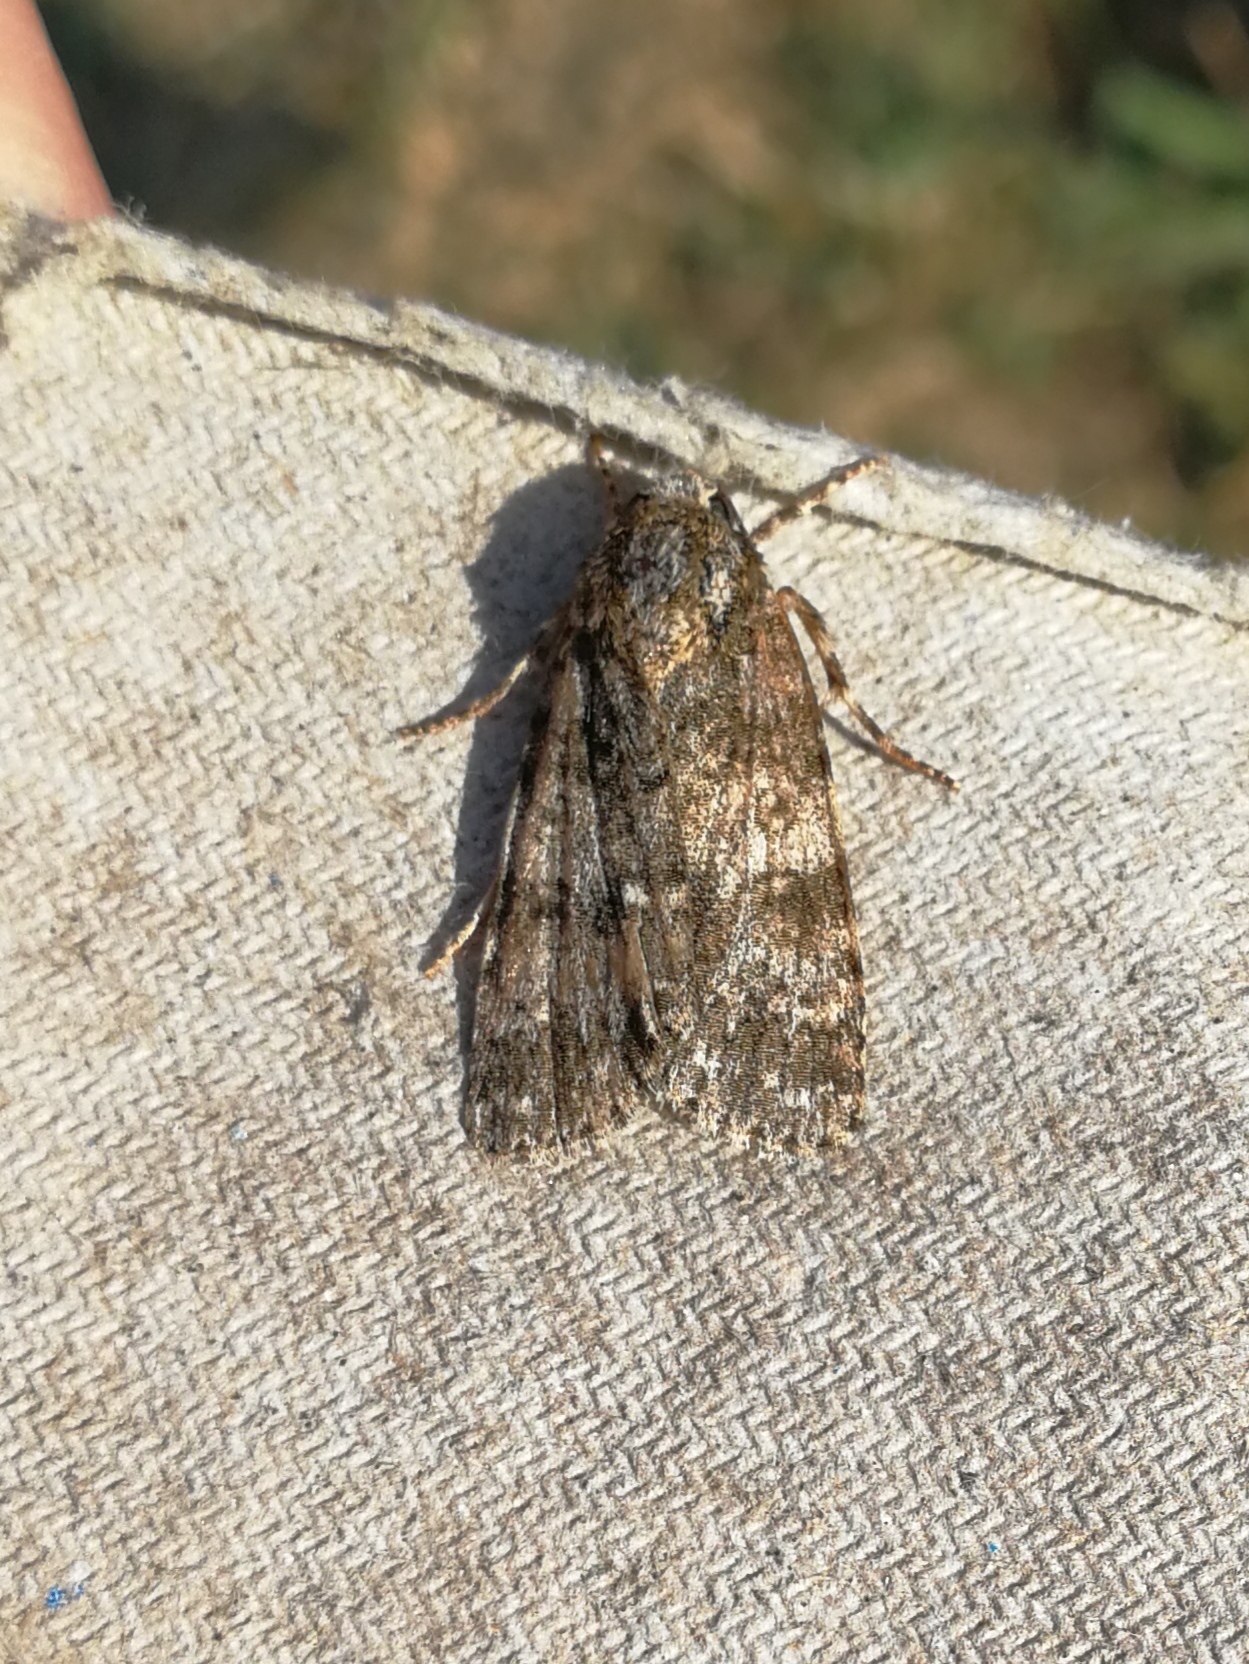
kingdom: Animalia
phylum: Arthropoda
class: Insecta
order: Lepidoptera
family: Noctuidae
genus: Acronicta
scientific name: Acronicta rumicis
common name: Knot grass
